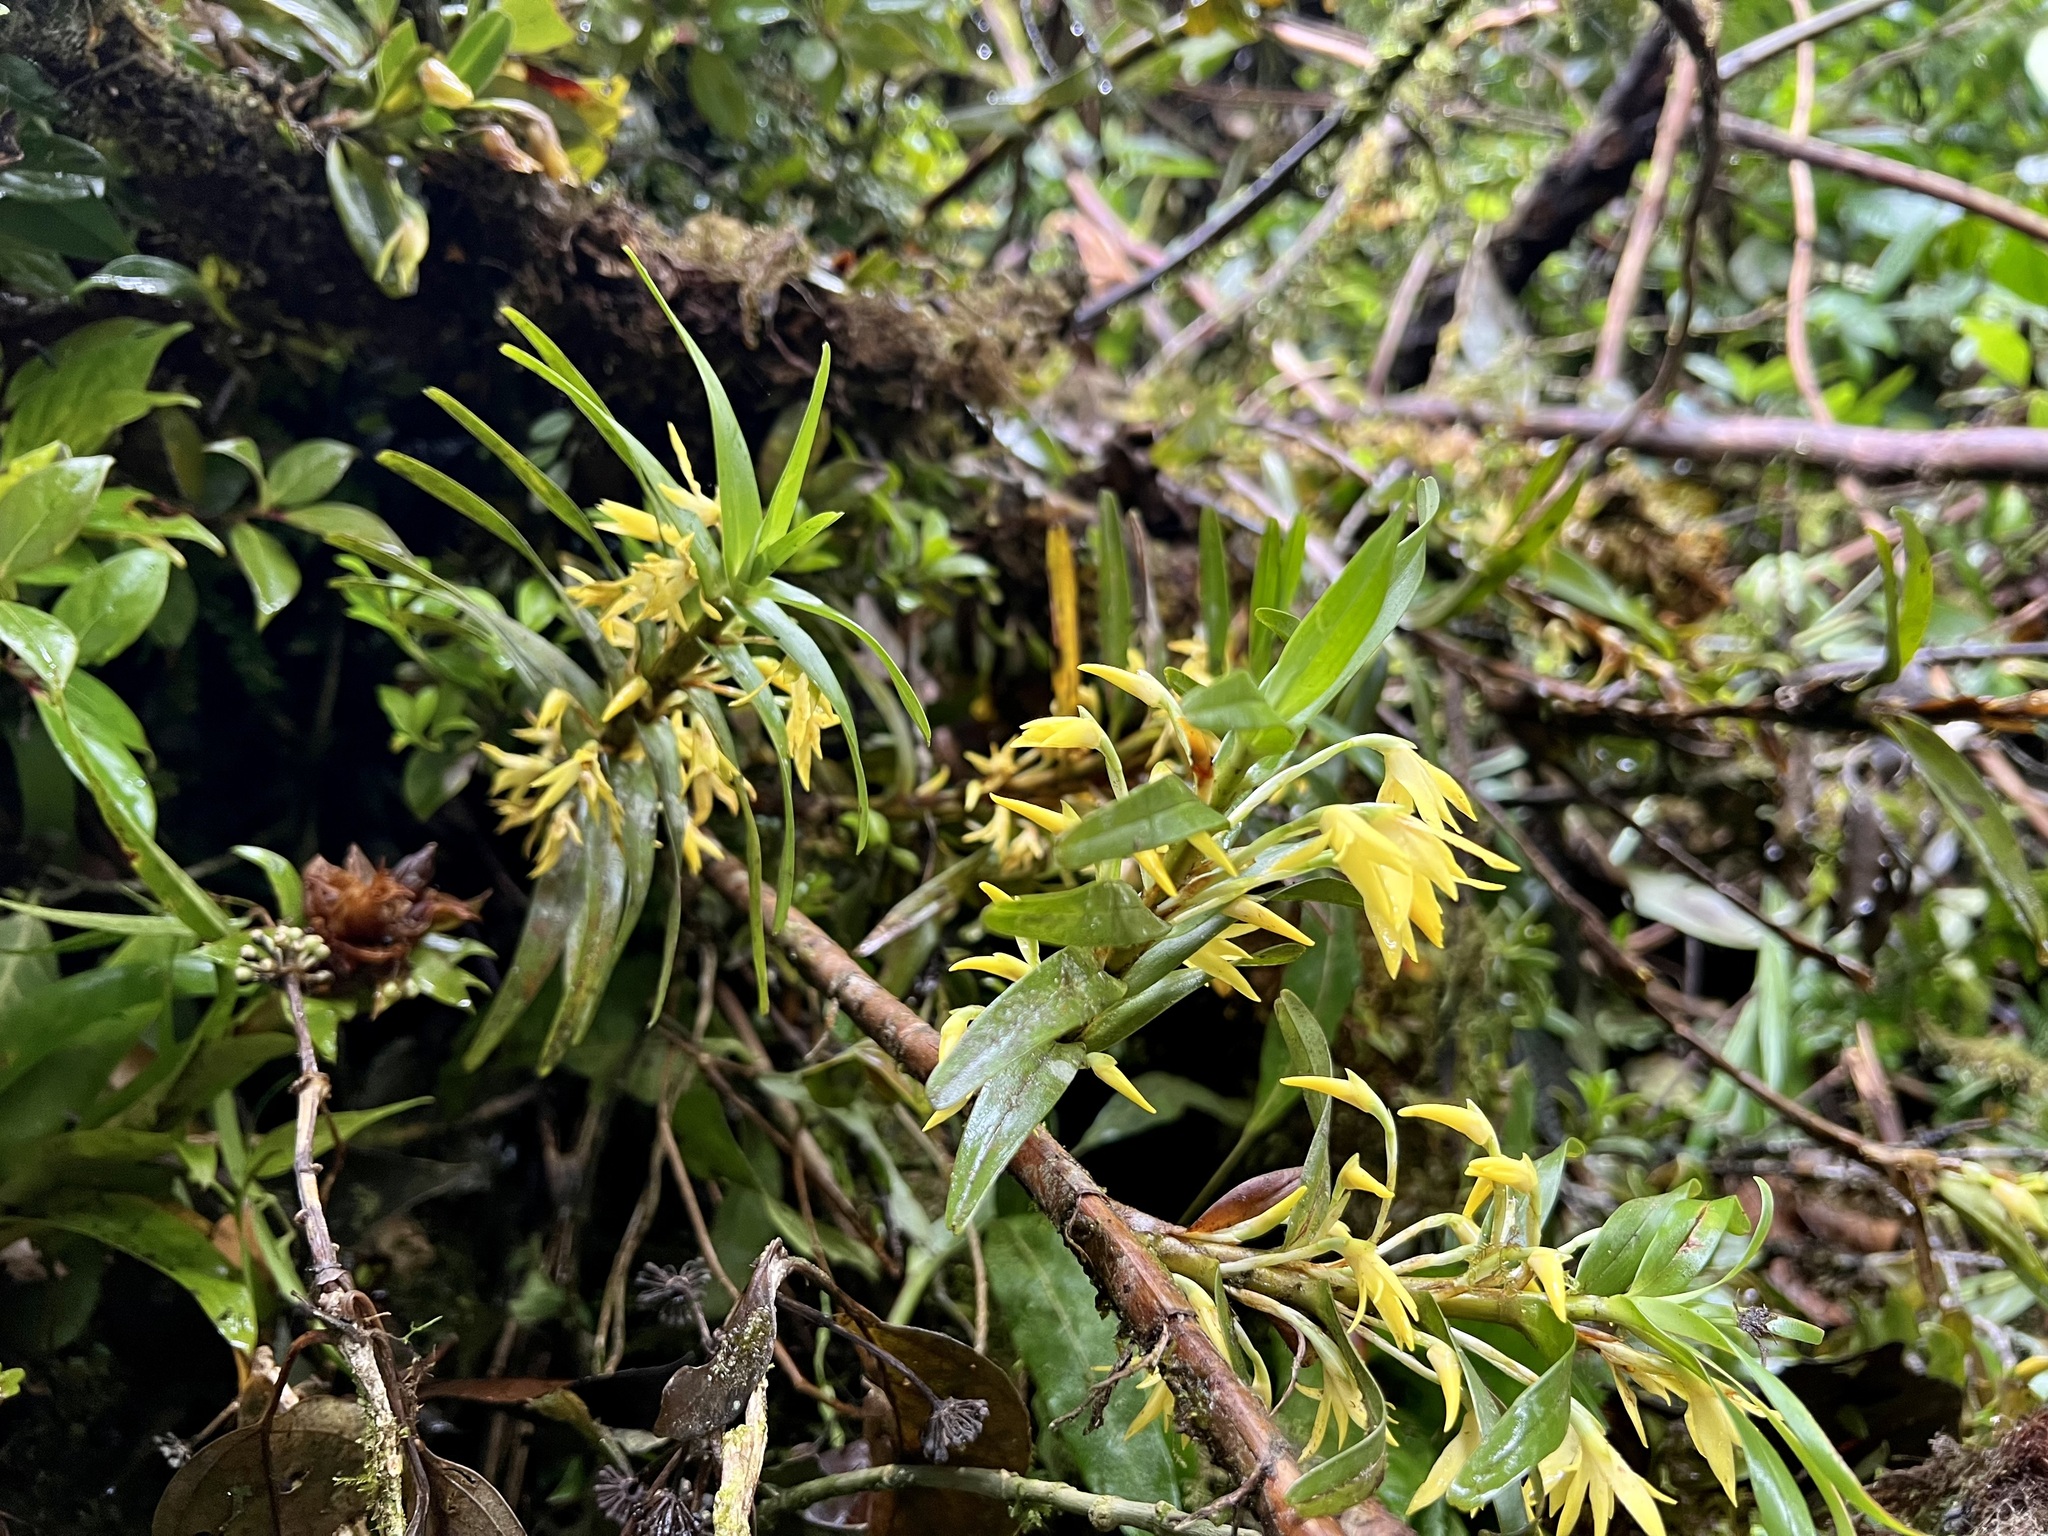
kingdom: Plantae
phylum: Tracheophyta
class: Liliopsida
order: Asparagales
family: Orchidaceae
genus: Maxillaria
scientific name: Maxillaria umbratilis
